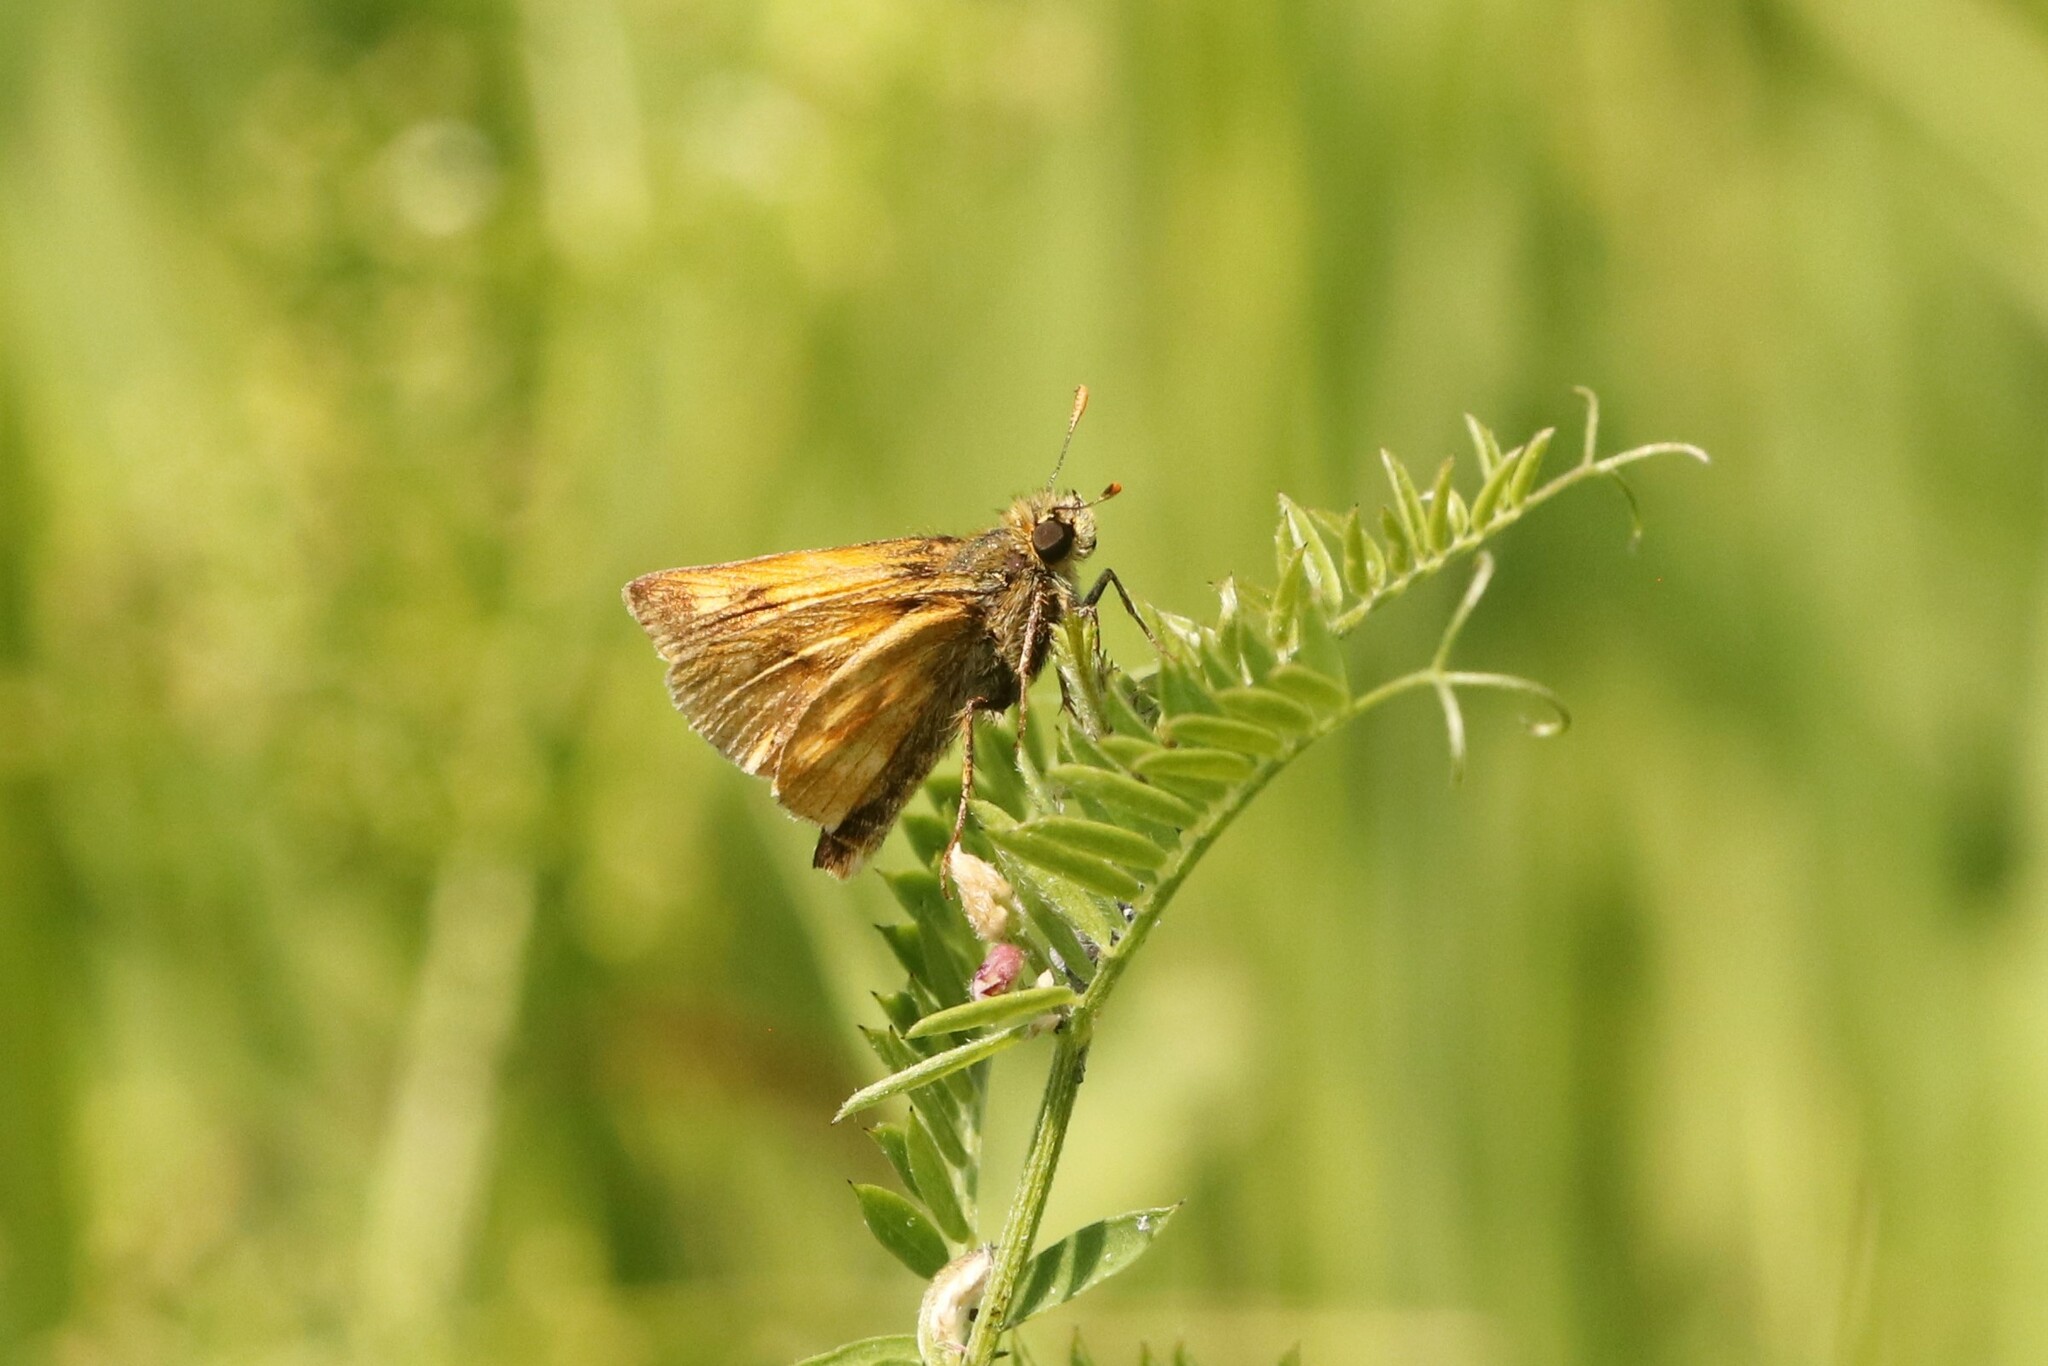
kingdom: Animalia
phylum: Arthropoda
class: Insecta
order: Lepidoptera
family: Hesperiidae
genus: Polites
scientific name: Polites mystic
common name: Long dash
